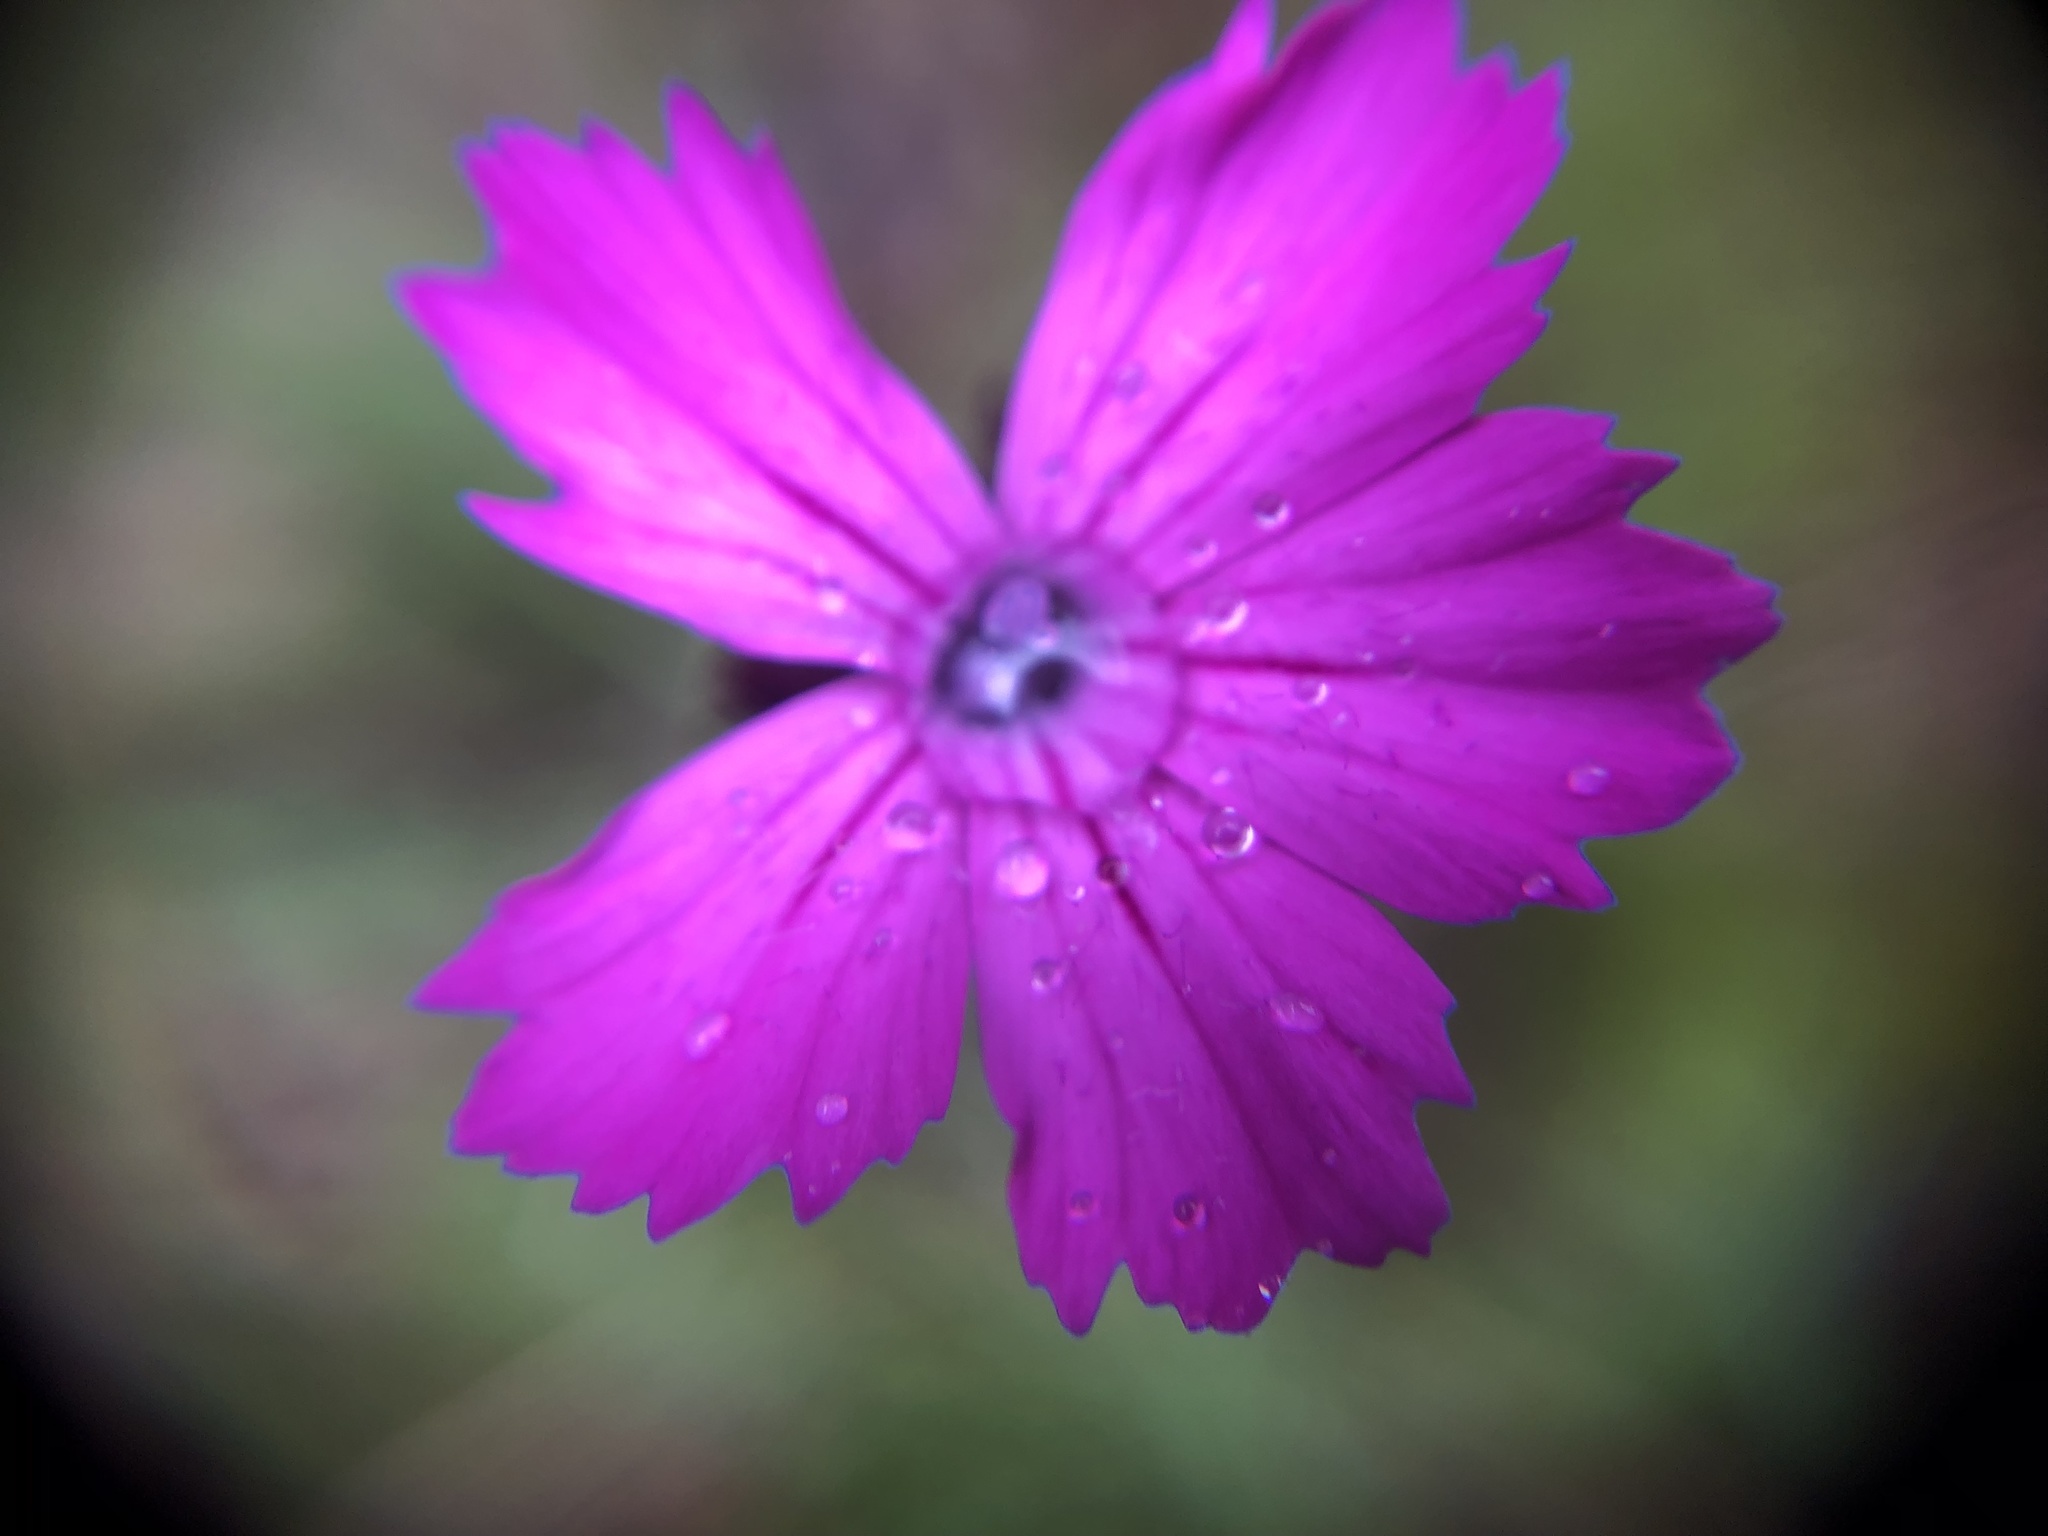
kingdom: Plantae
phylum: Tracheophyta
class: Magnoliopsida
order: Caryophyllales
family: Caryophyllaceae
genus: Dianthus
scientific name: Dianthus carthusianorum
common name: Carthusian pink
